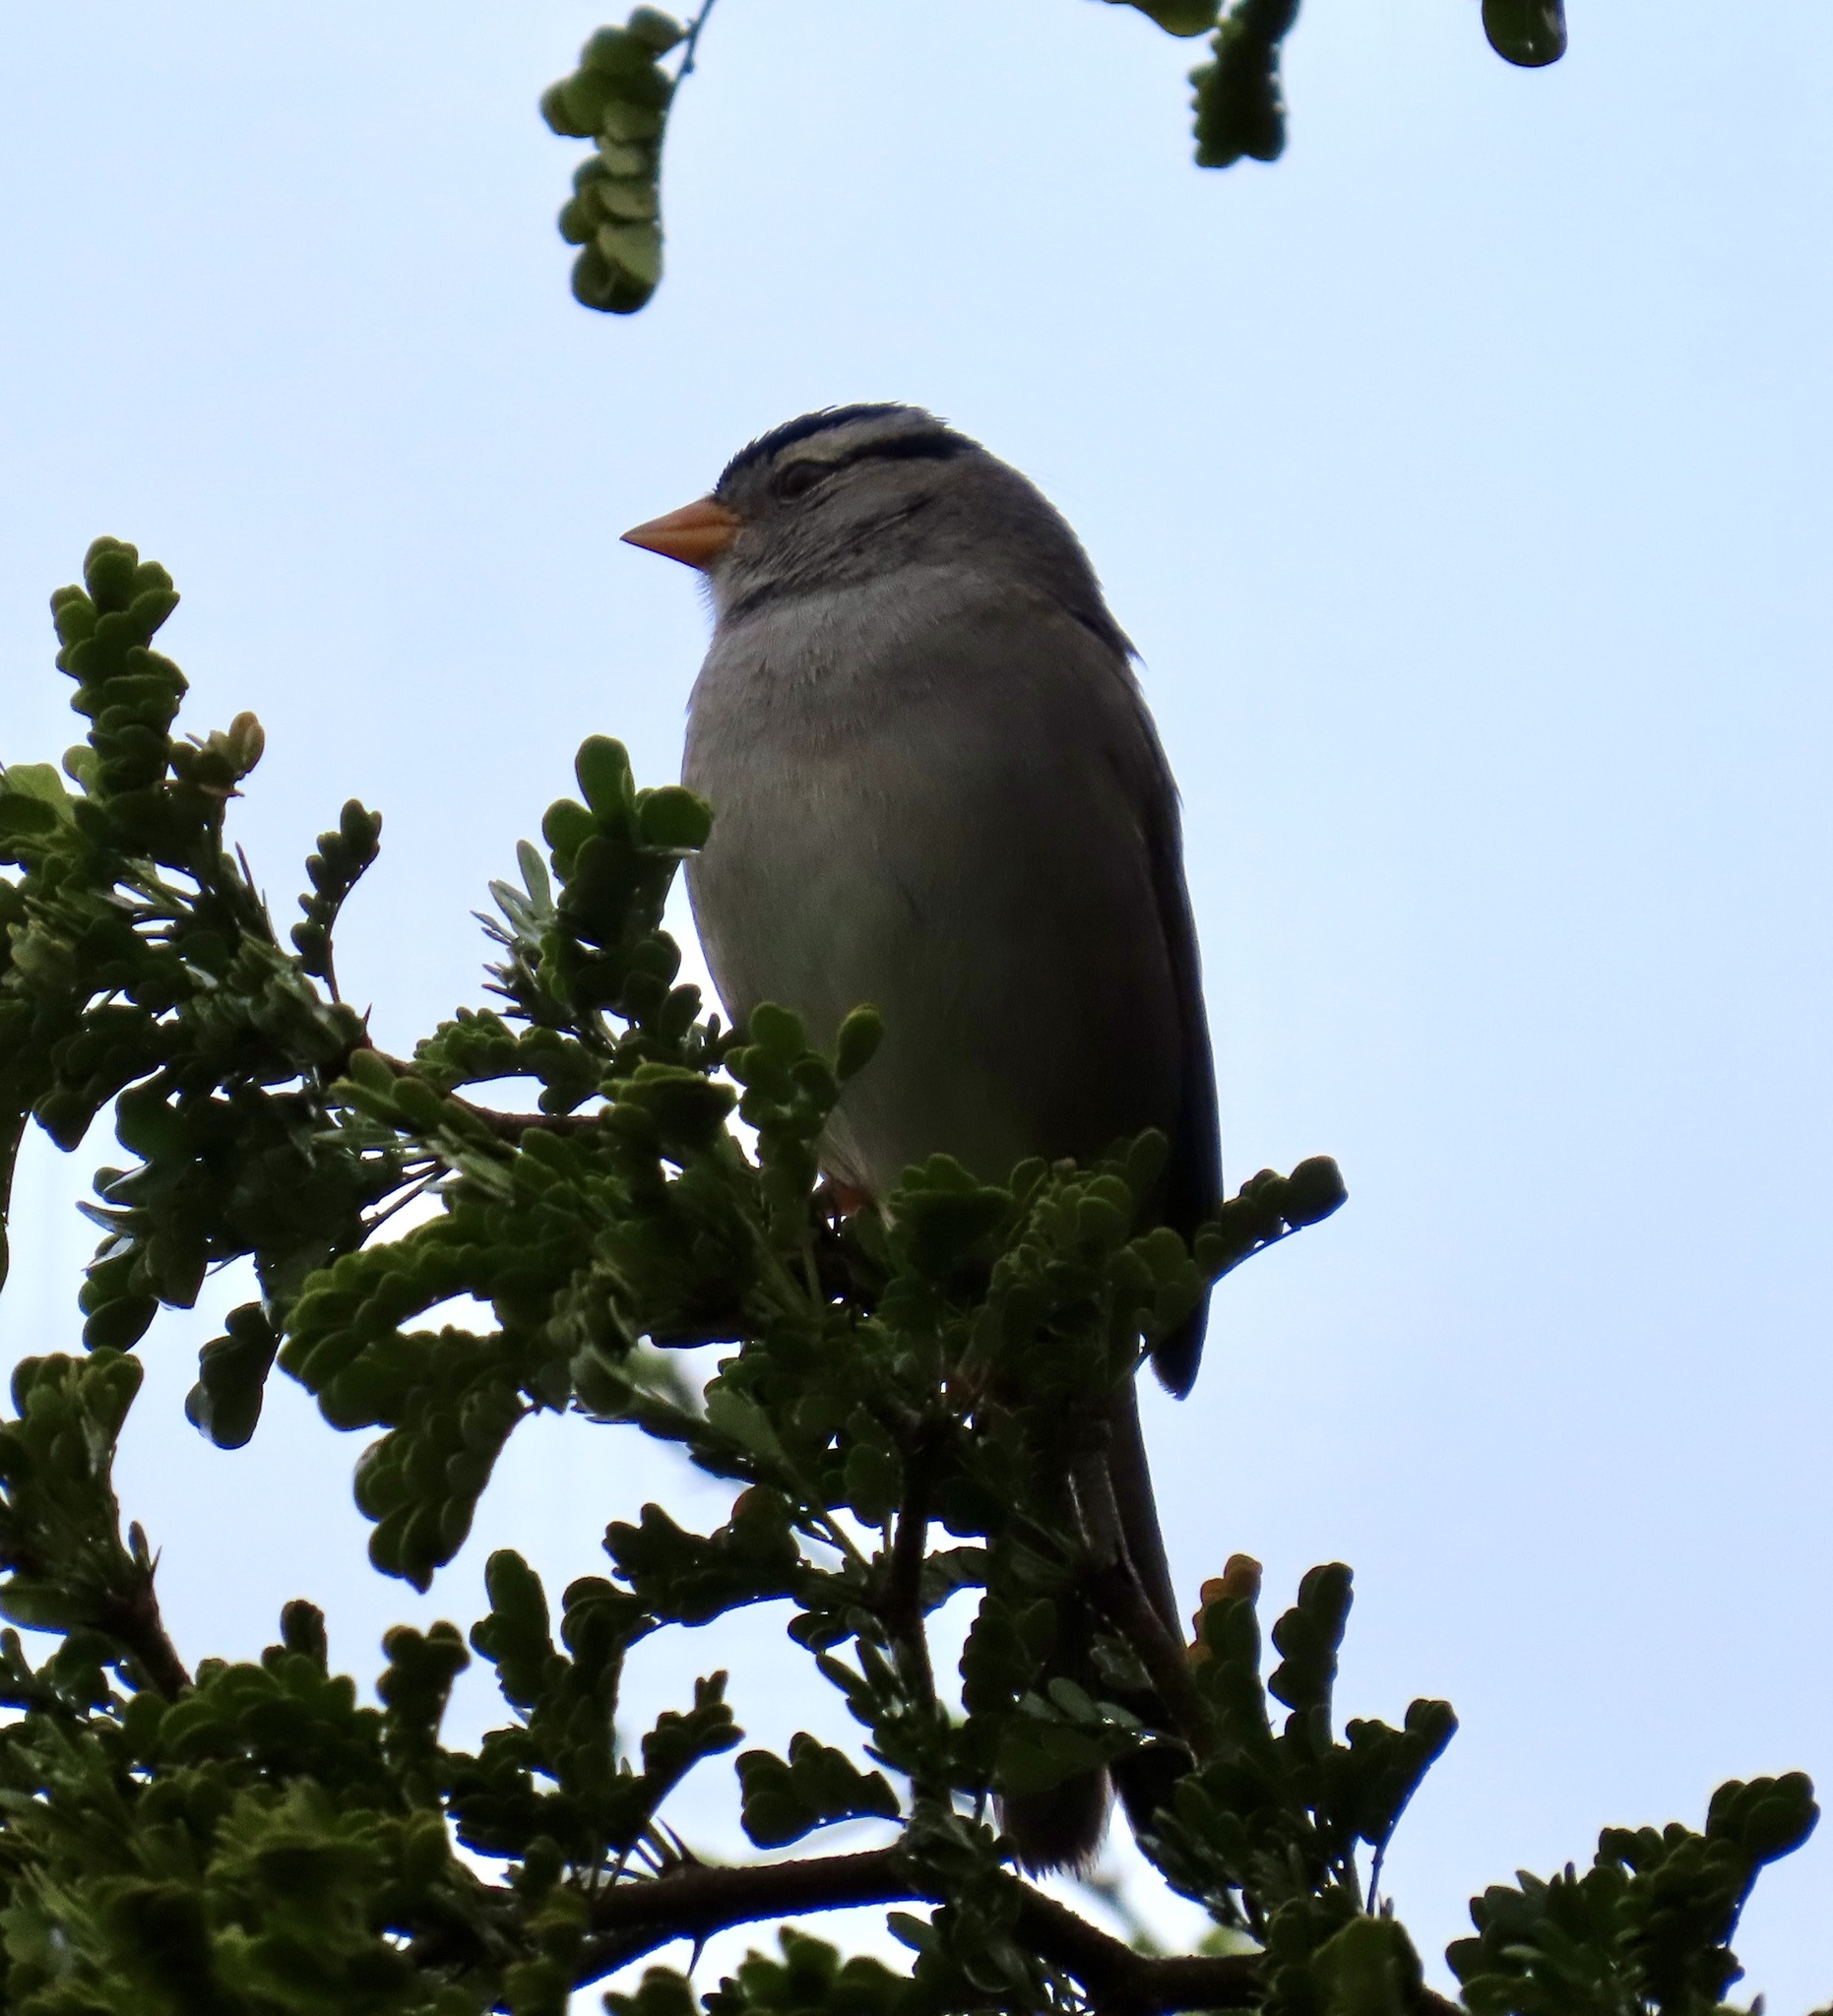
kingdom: Animalia
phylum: Chordata
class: Aves
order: Passeriformes
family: Passerellidae
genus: Zonotrichia
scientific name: Zonotrichia leucophrys
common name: White-crowned sparrow
